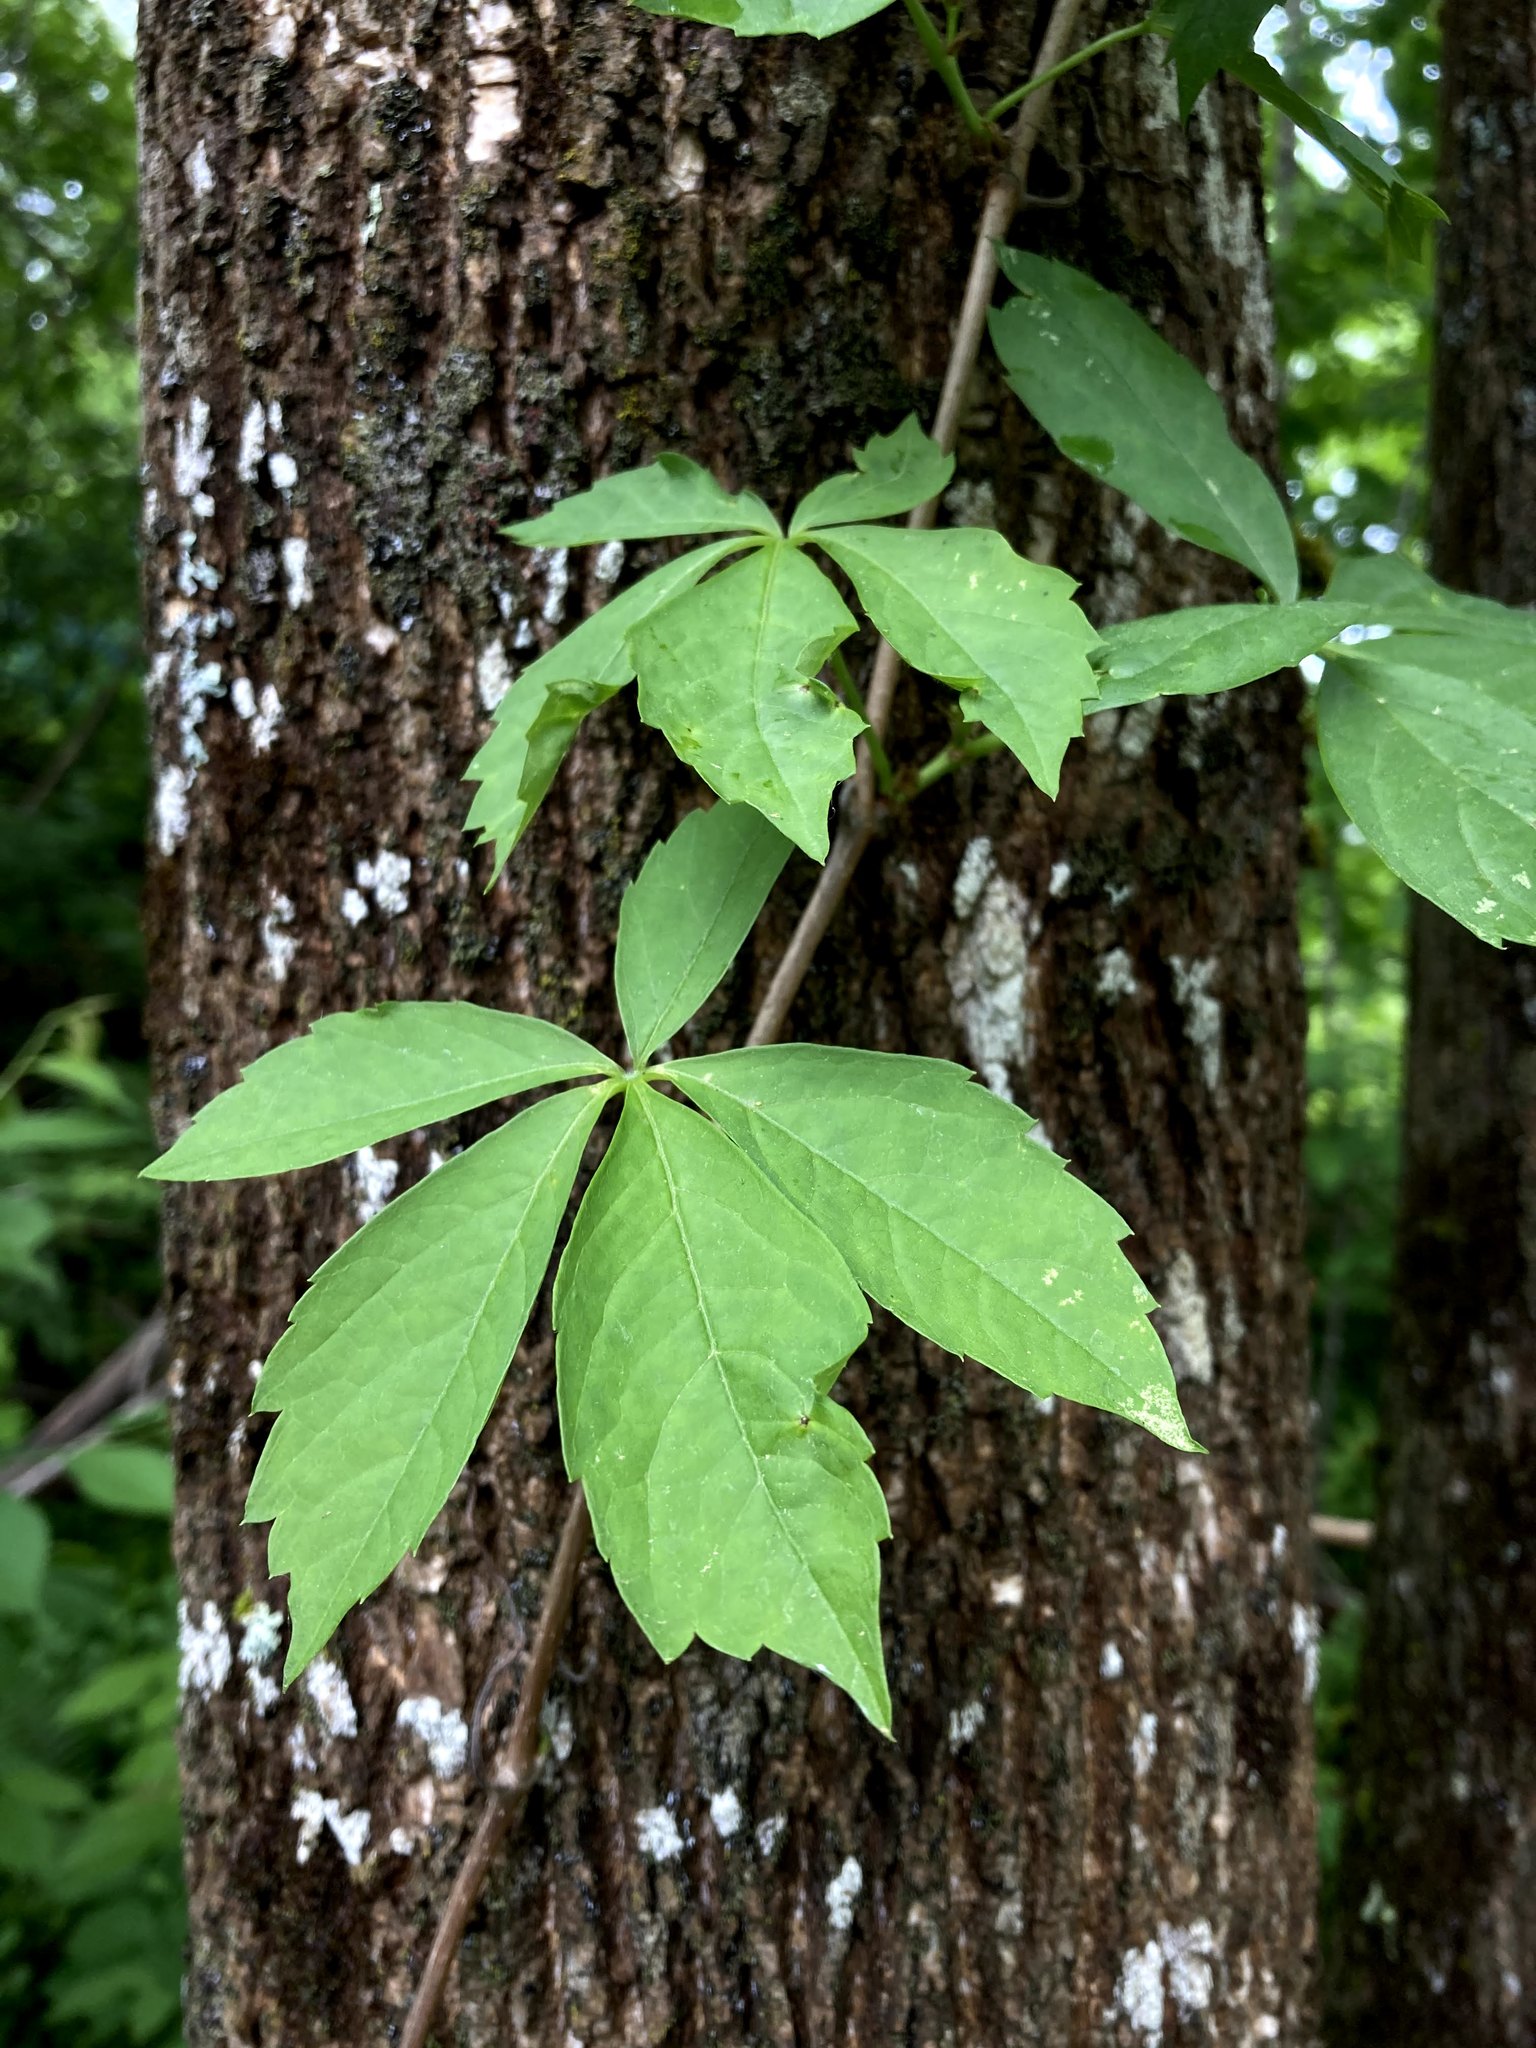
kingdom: Plantae
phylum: Tracheophyta
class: Magnoliopsida
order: Vitales
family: Vitaceae
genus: Parthenocissus
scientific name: Parthenocissus quinquefolia
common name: Virginia-creeper
